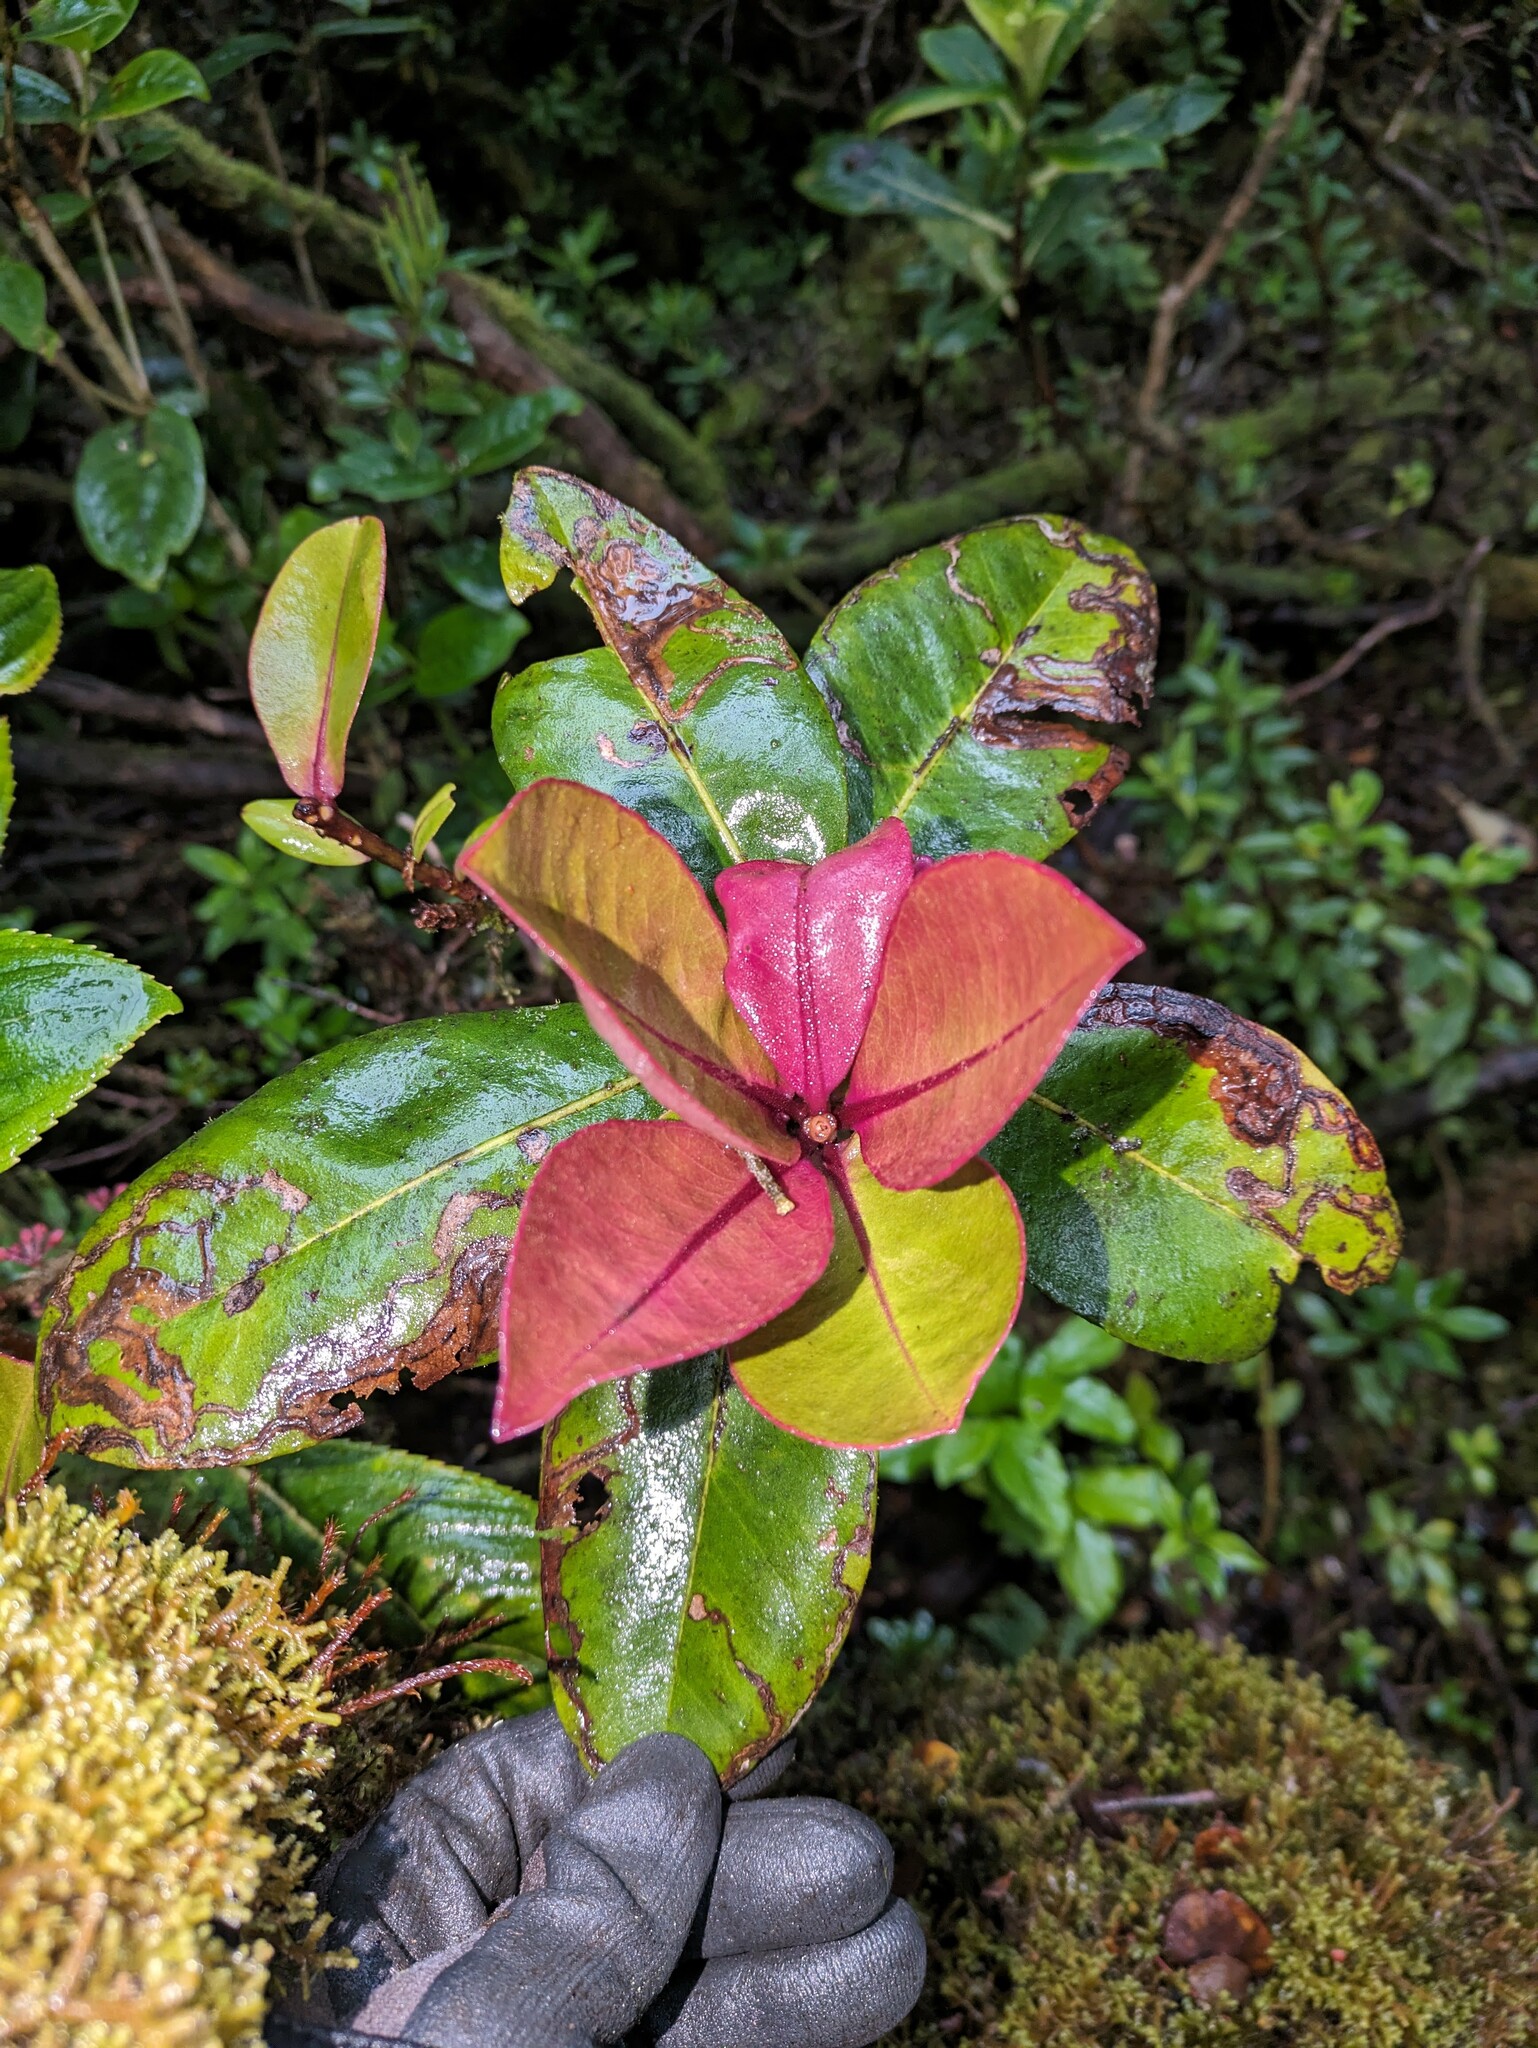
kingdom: Plantae
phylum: Tracheophyta
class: Magnoliopsida
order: Ericales
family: Primulaceae
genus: Myrsine
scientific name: Myrsine wawraea
